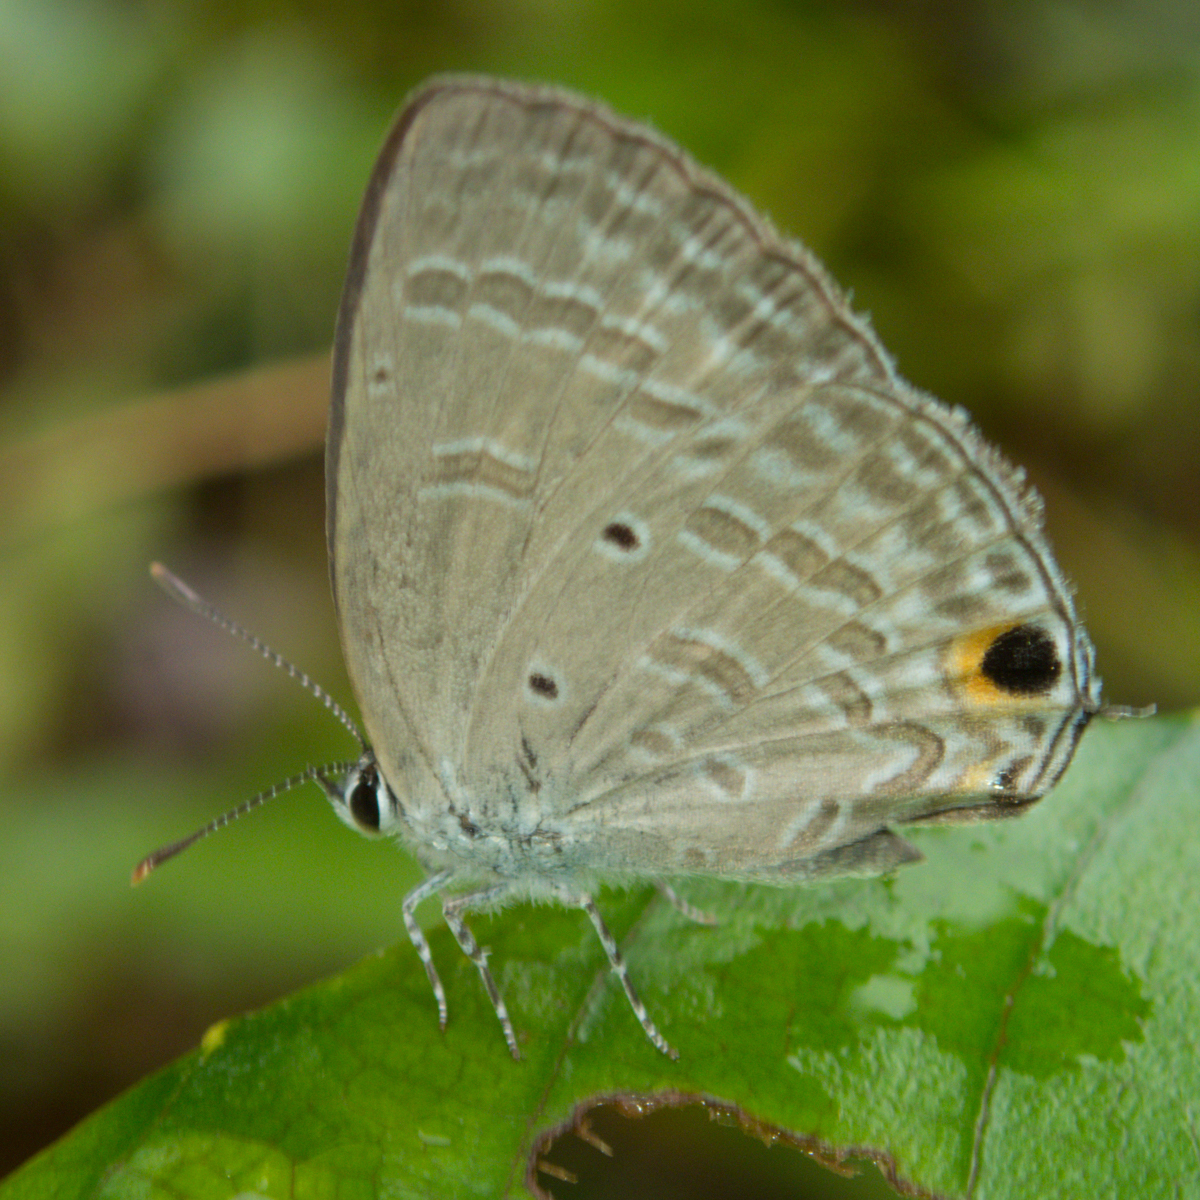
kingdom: Animalia
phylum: Arthropoda
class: Insecta
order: Lepidoptera
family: Lycaenidae
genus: Catochrysops
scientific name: Catochrysops strabo
